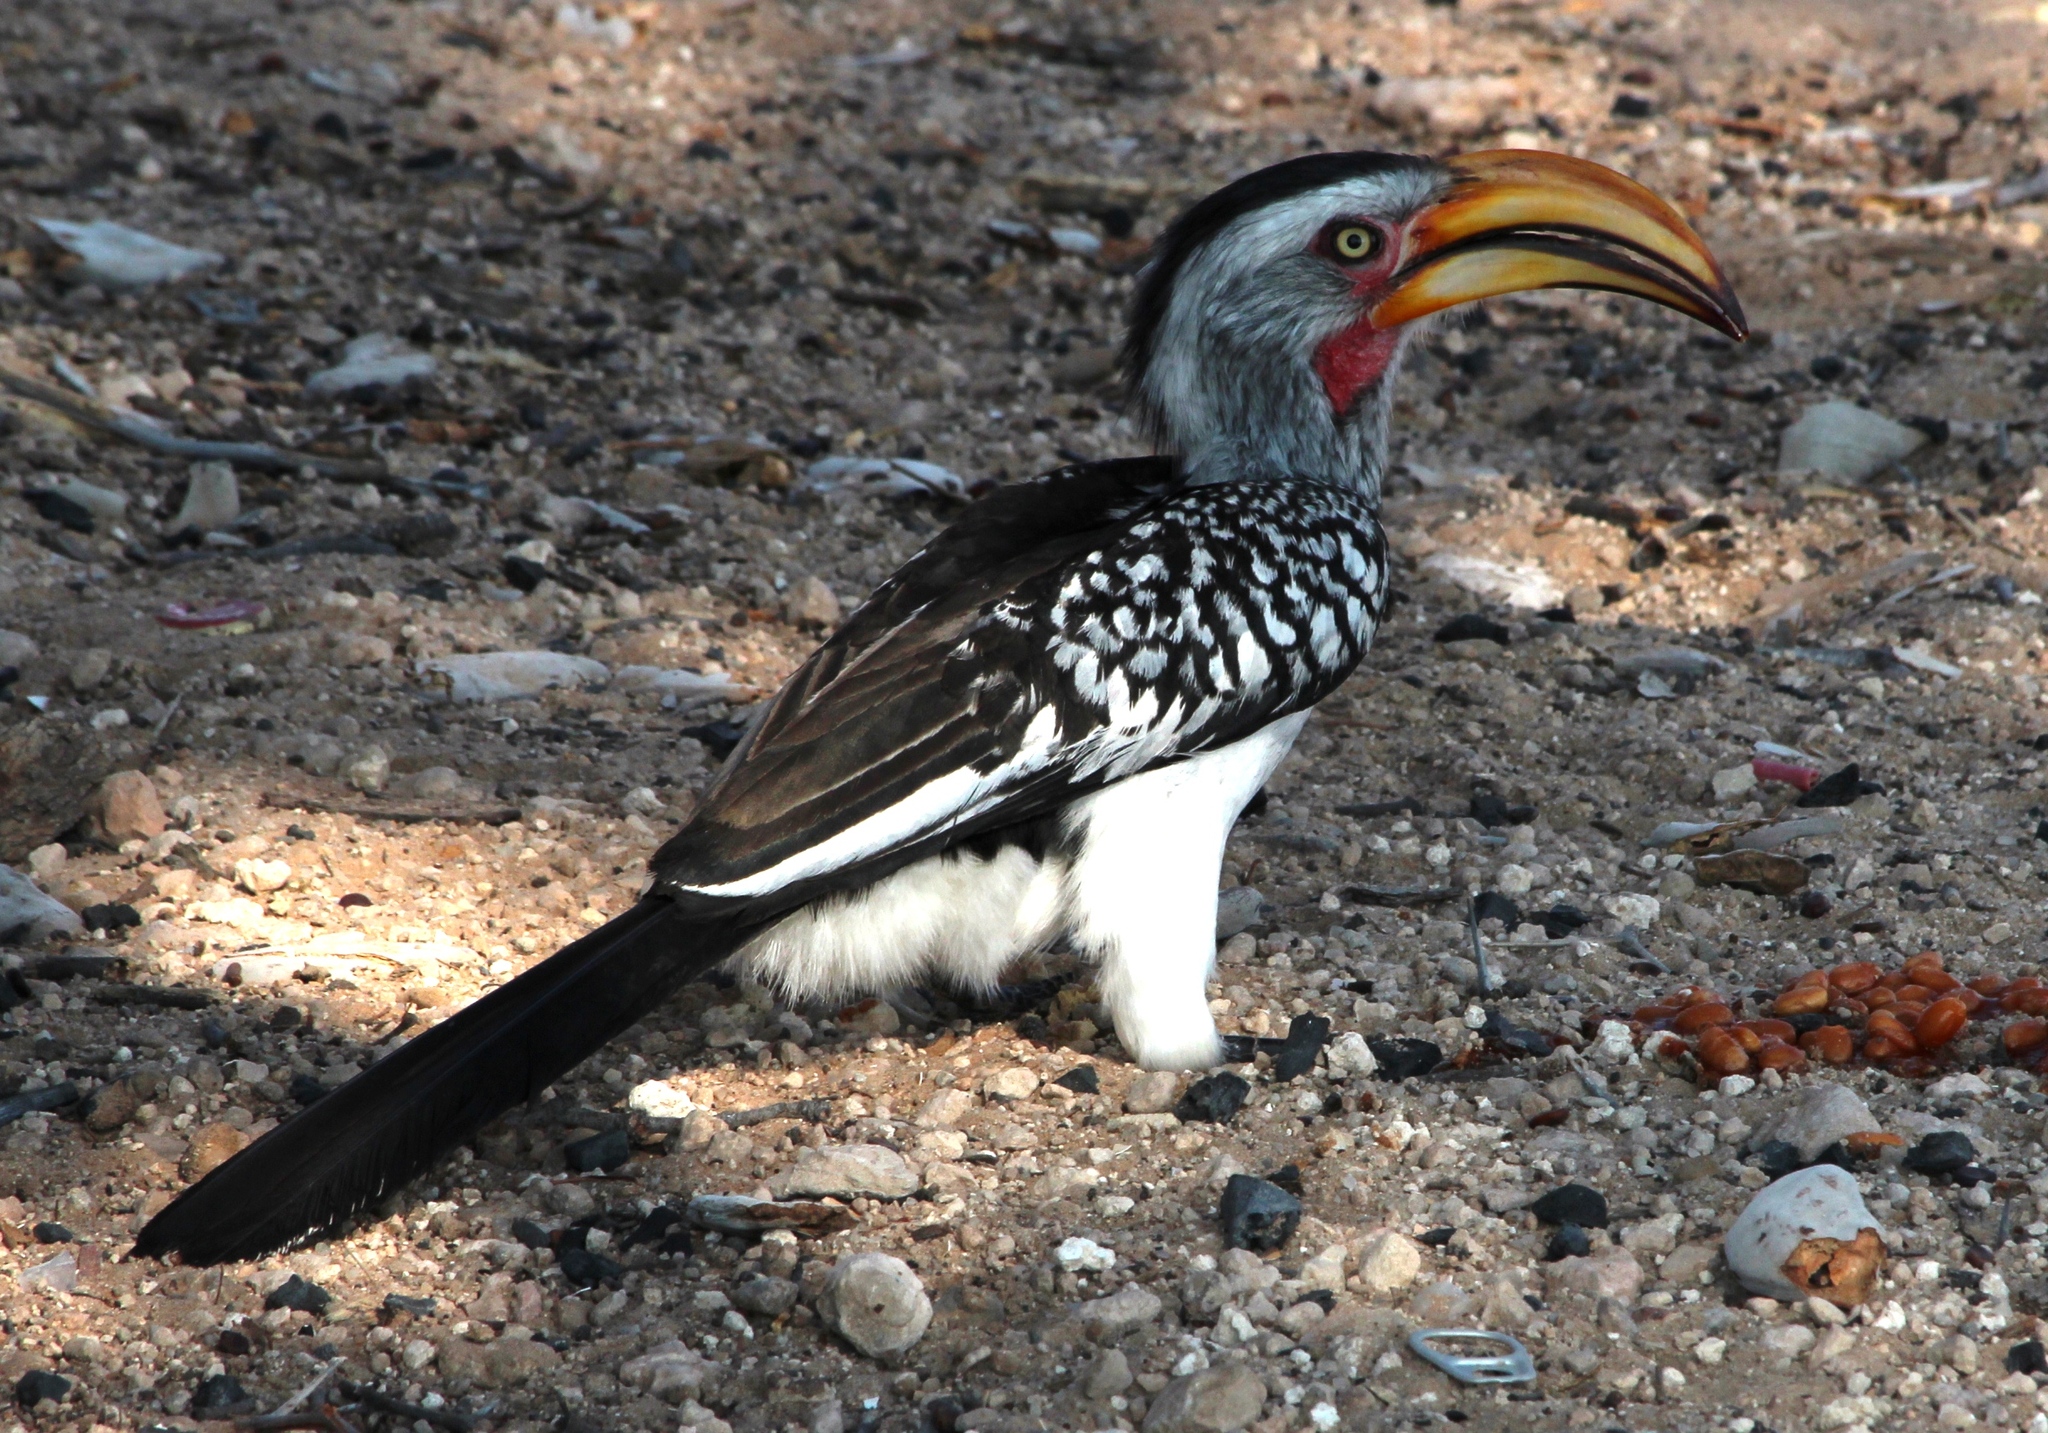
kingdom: Animalia
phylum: Chordata
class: Aves
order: Bucerotiformes
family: Bucerotidae
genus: Tockus
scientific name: Tockus leucomelas
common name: Southern yellow-billed hornbill
